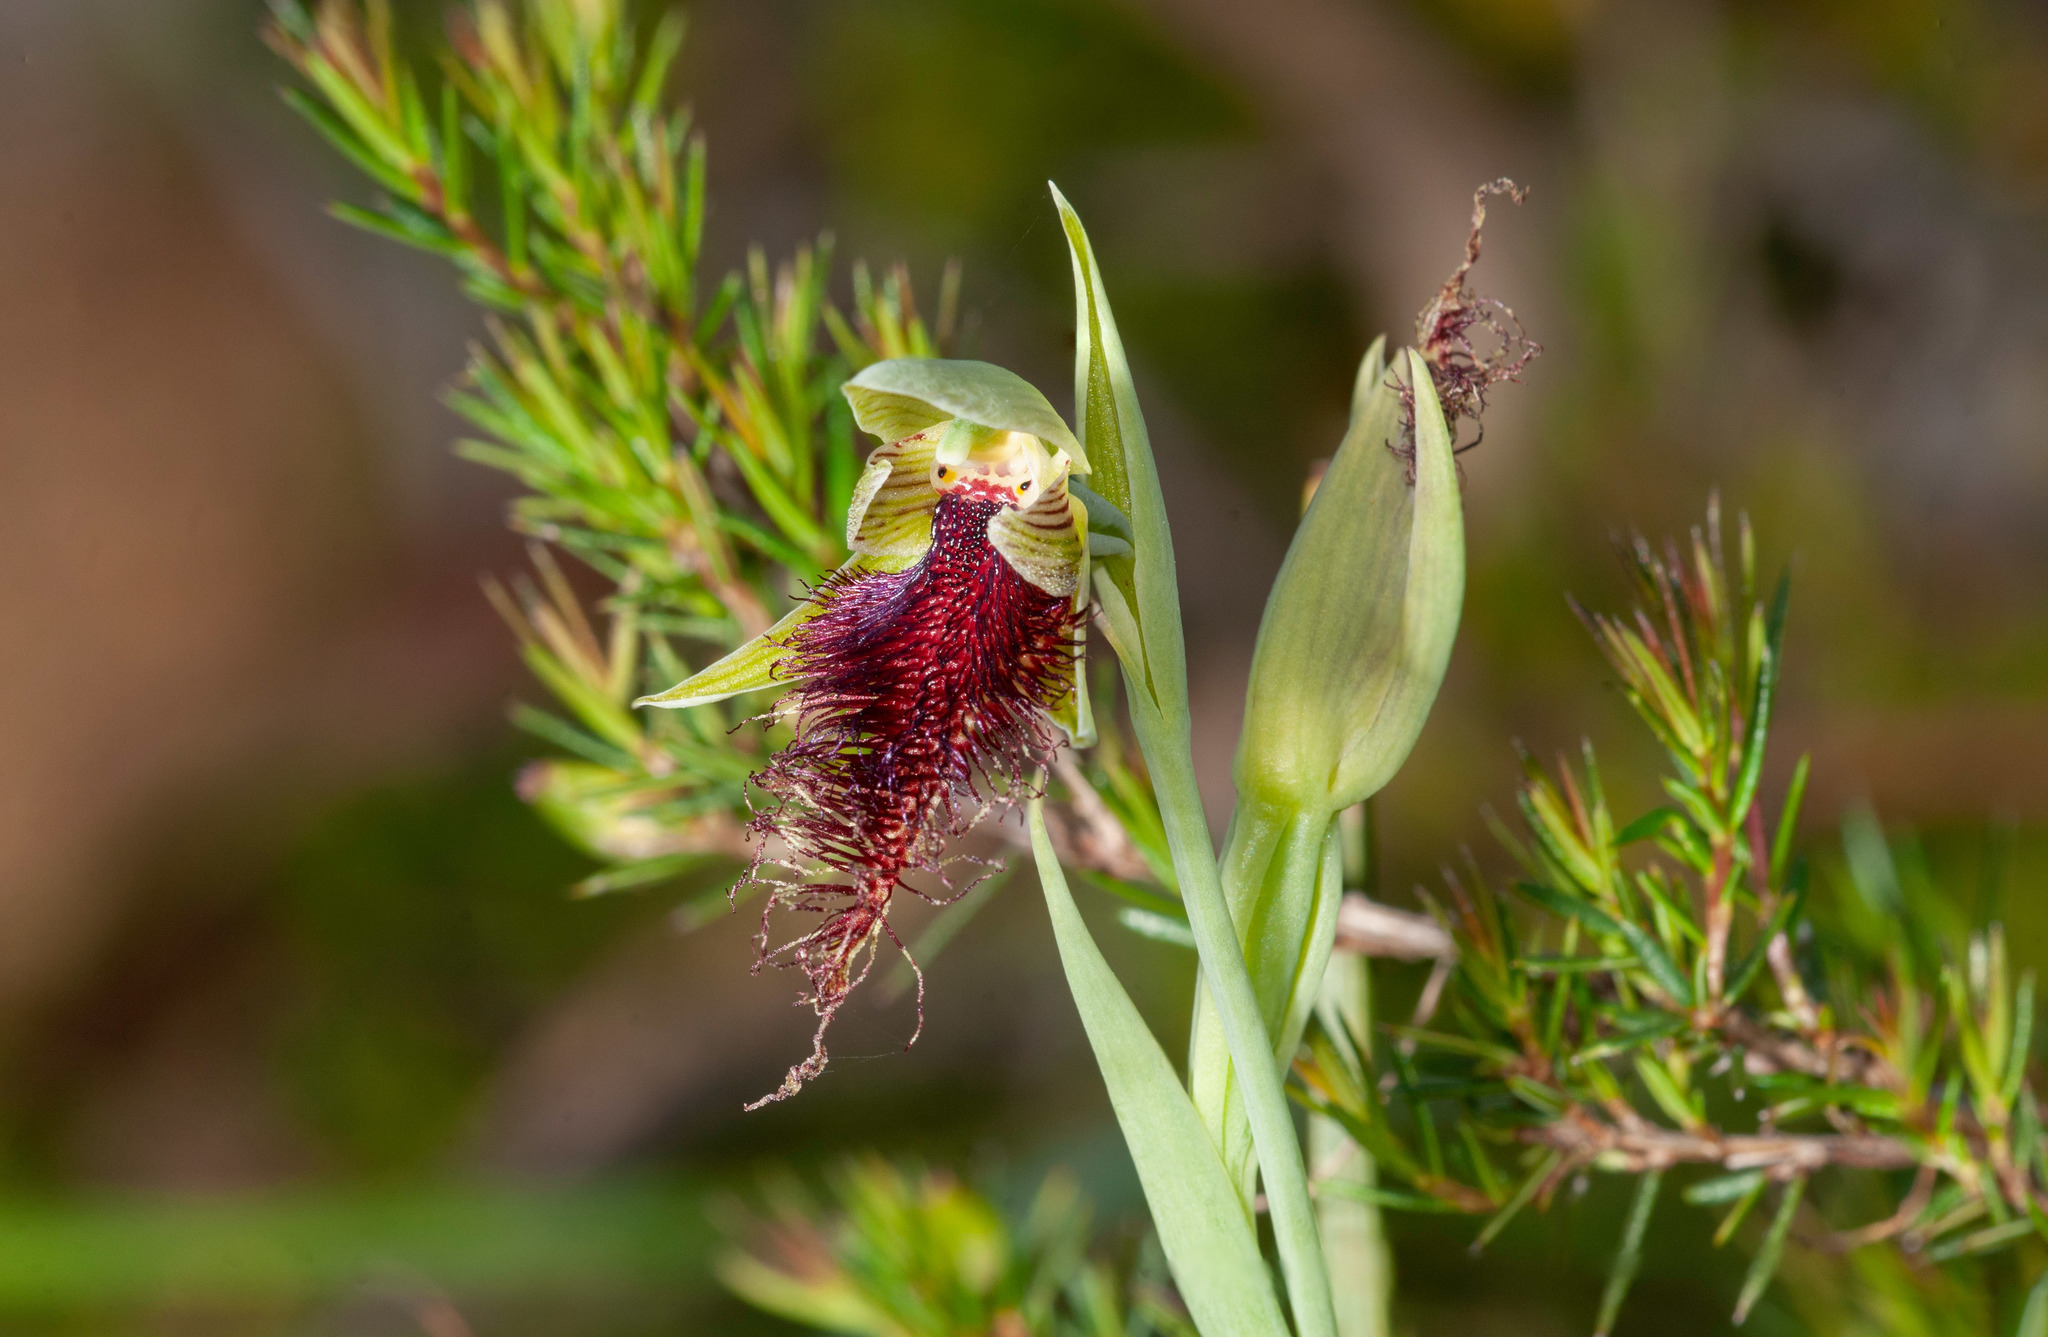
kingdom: Plantae
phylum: Tracheophyta
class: Liliopsida
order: Asparagales
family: Orchidaceae
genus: Calochilus
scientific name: Calochilus robertsonii
